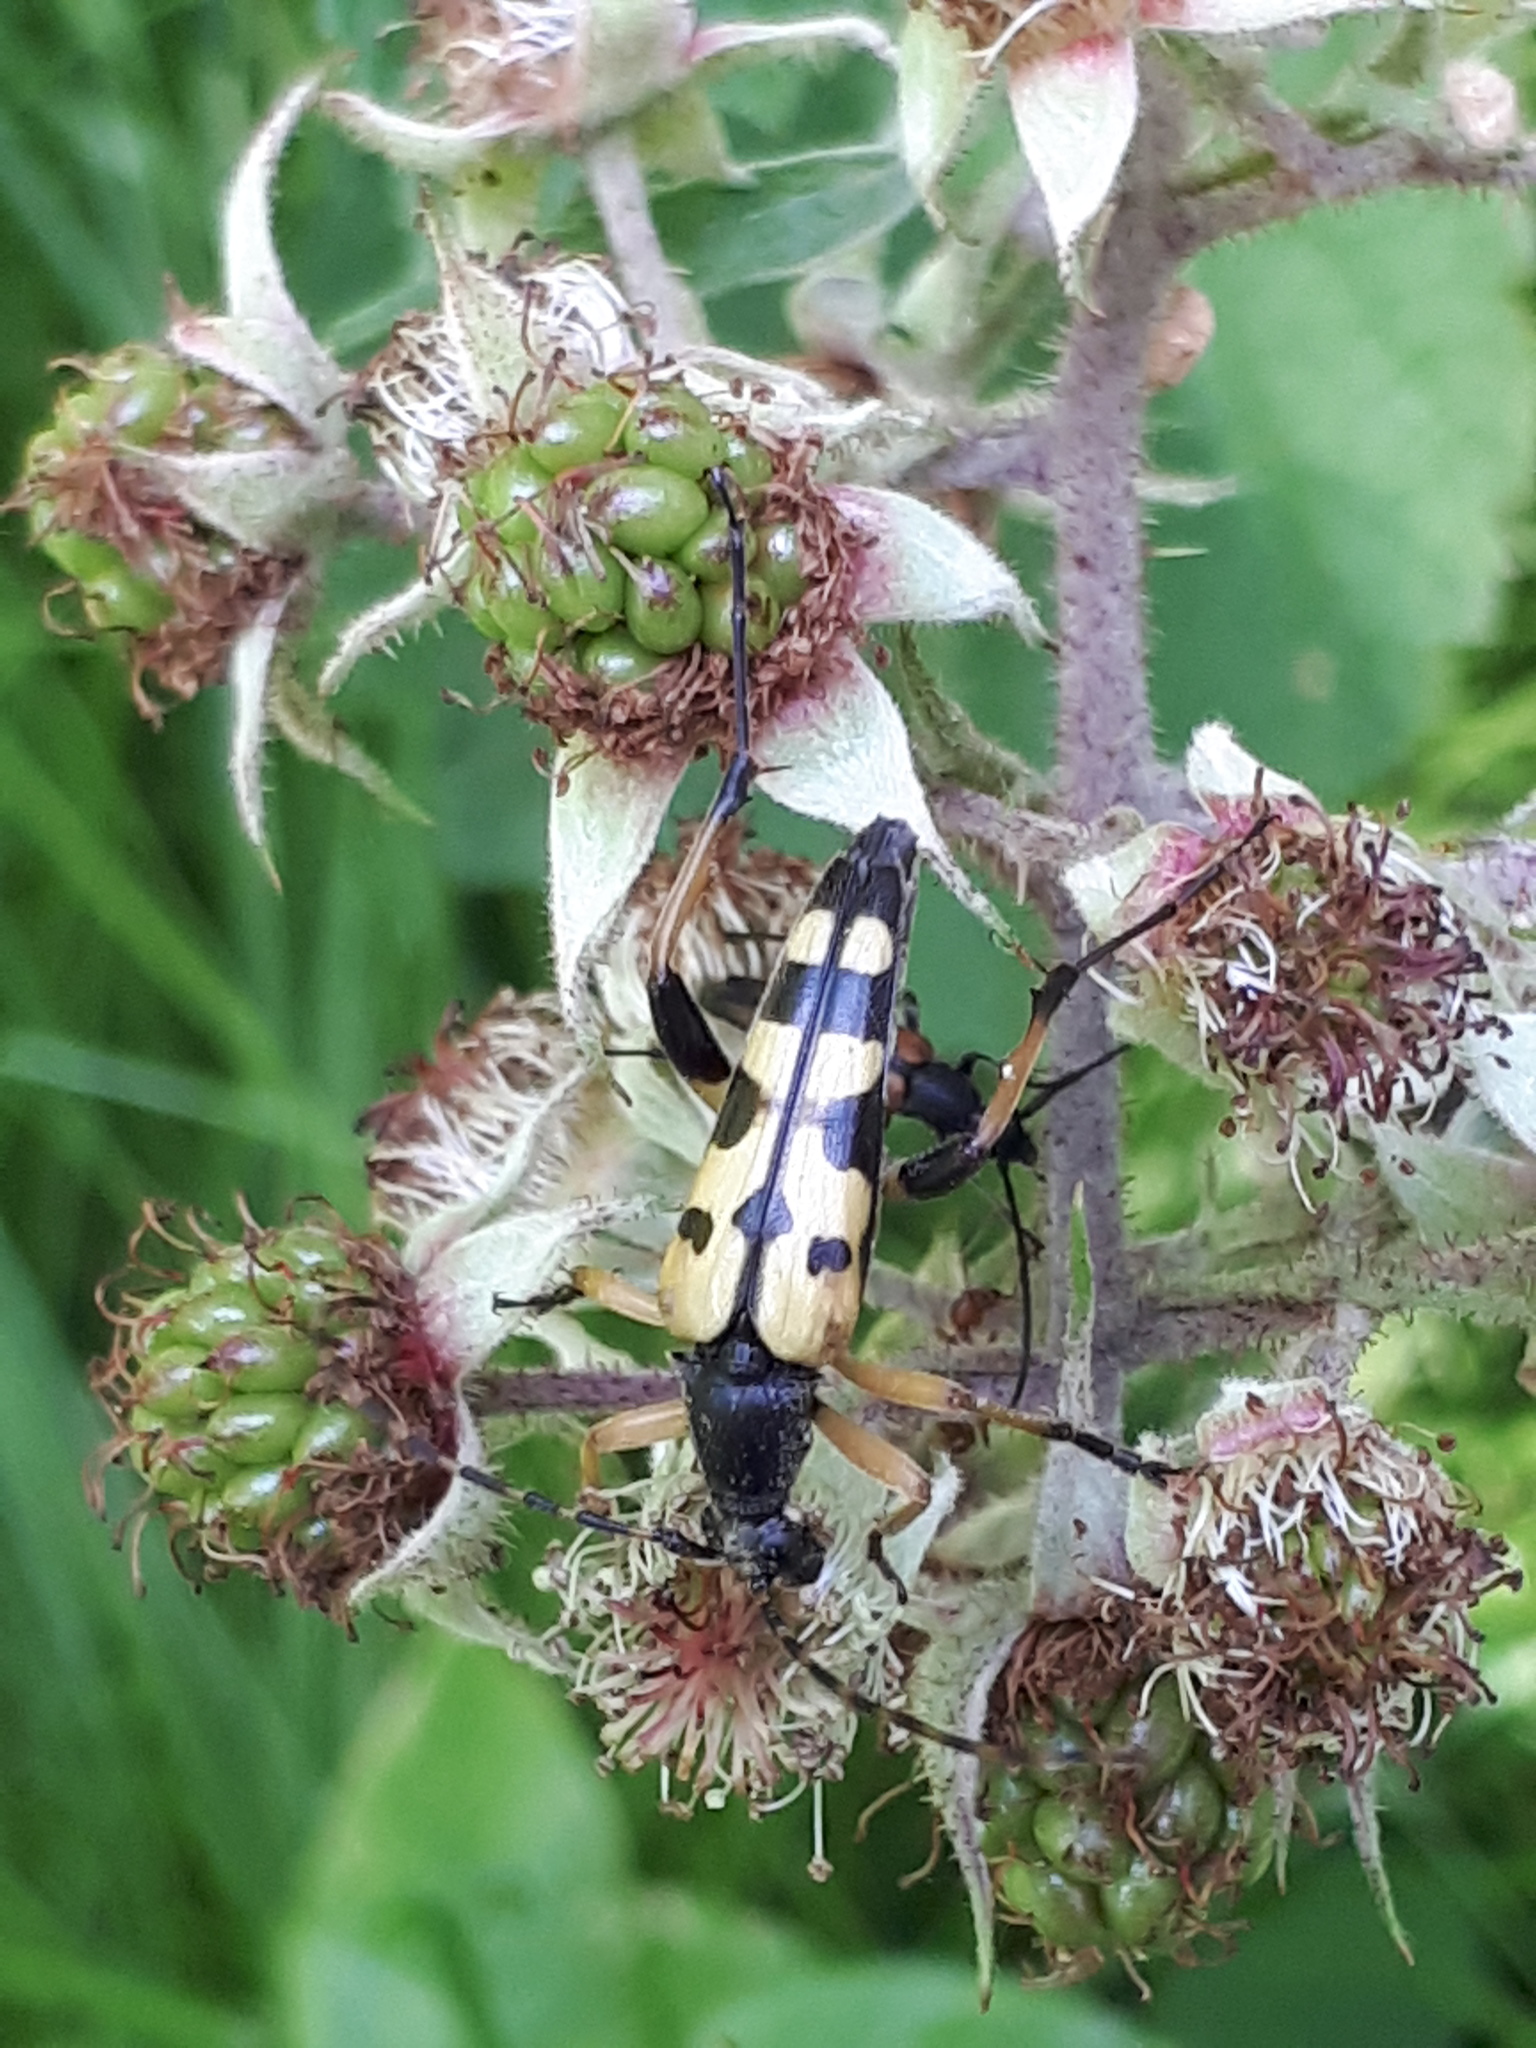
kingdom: Animalia
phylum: Arthropoda
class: Insecta
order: Coleoptera
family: Cerambycidae
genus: Rutpela
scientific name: Rutpela maculata
